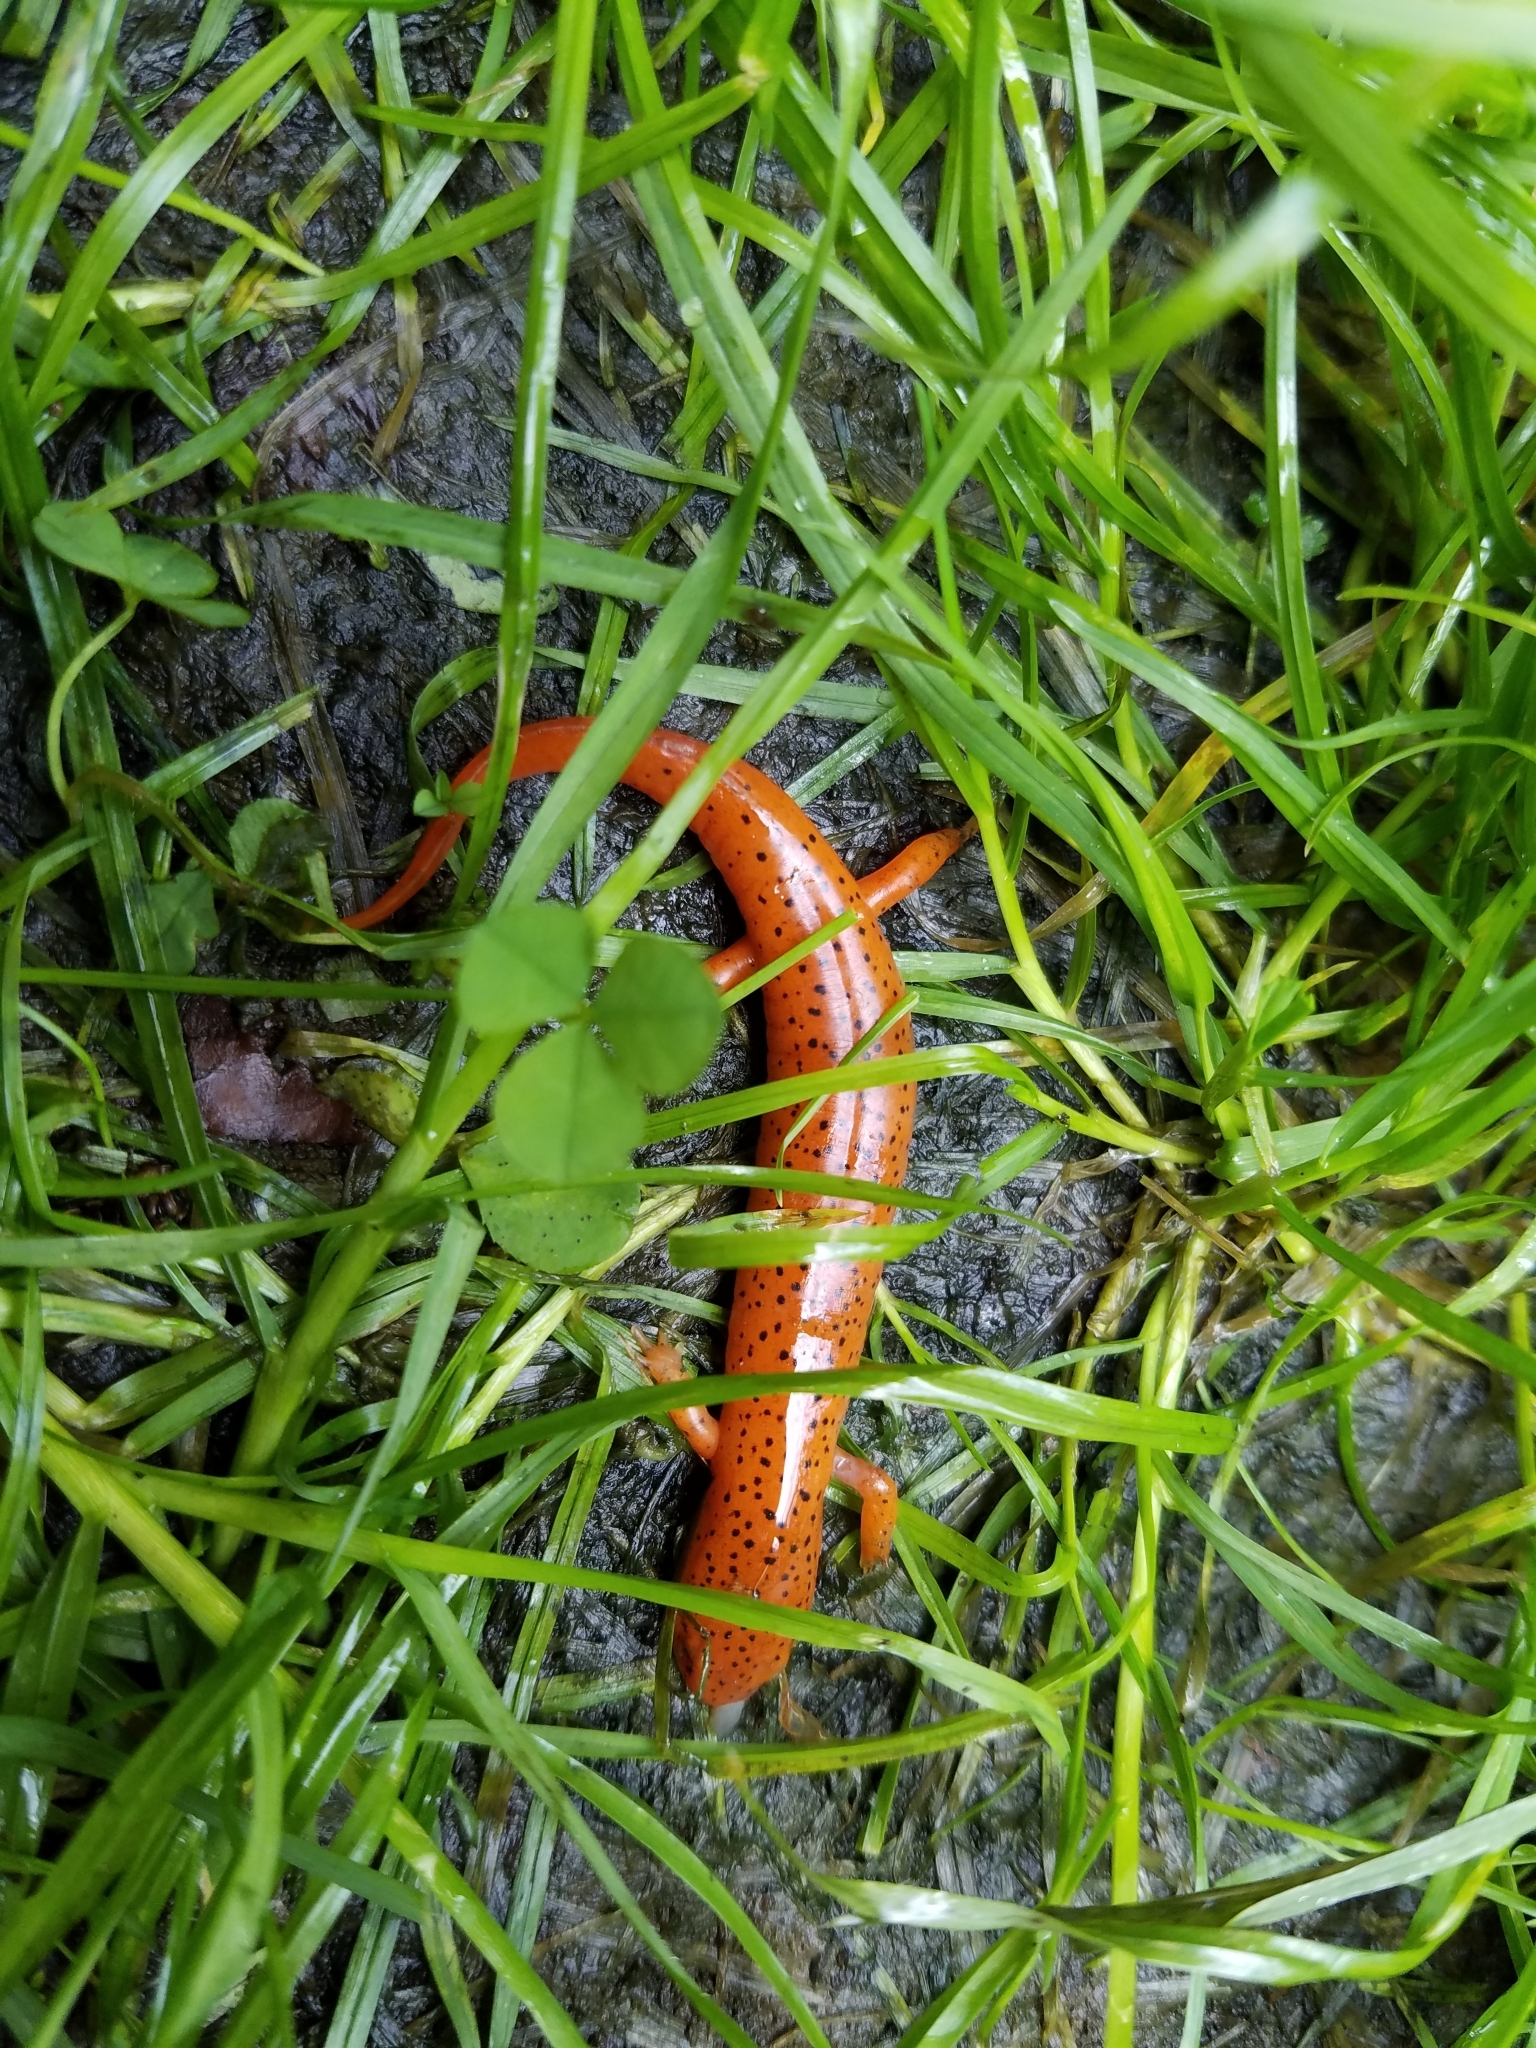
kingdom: Animalia
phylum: Chordata
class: Amphibia
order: Caudata
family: Plethodontidae
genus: Pseudotriton
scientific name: Pseudotriton ruber
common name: Red salamander
